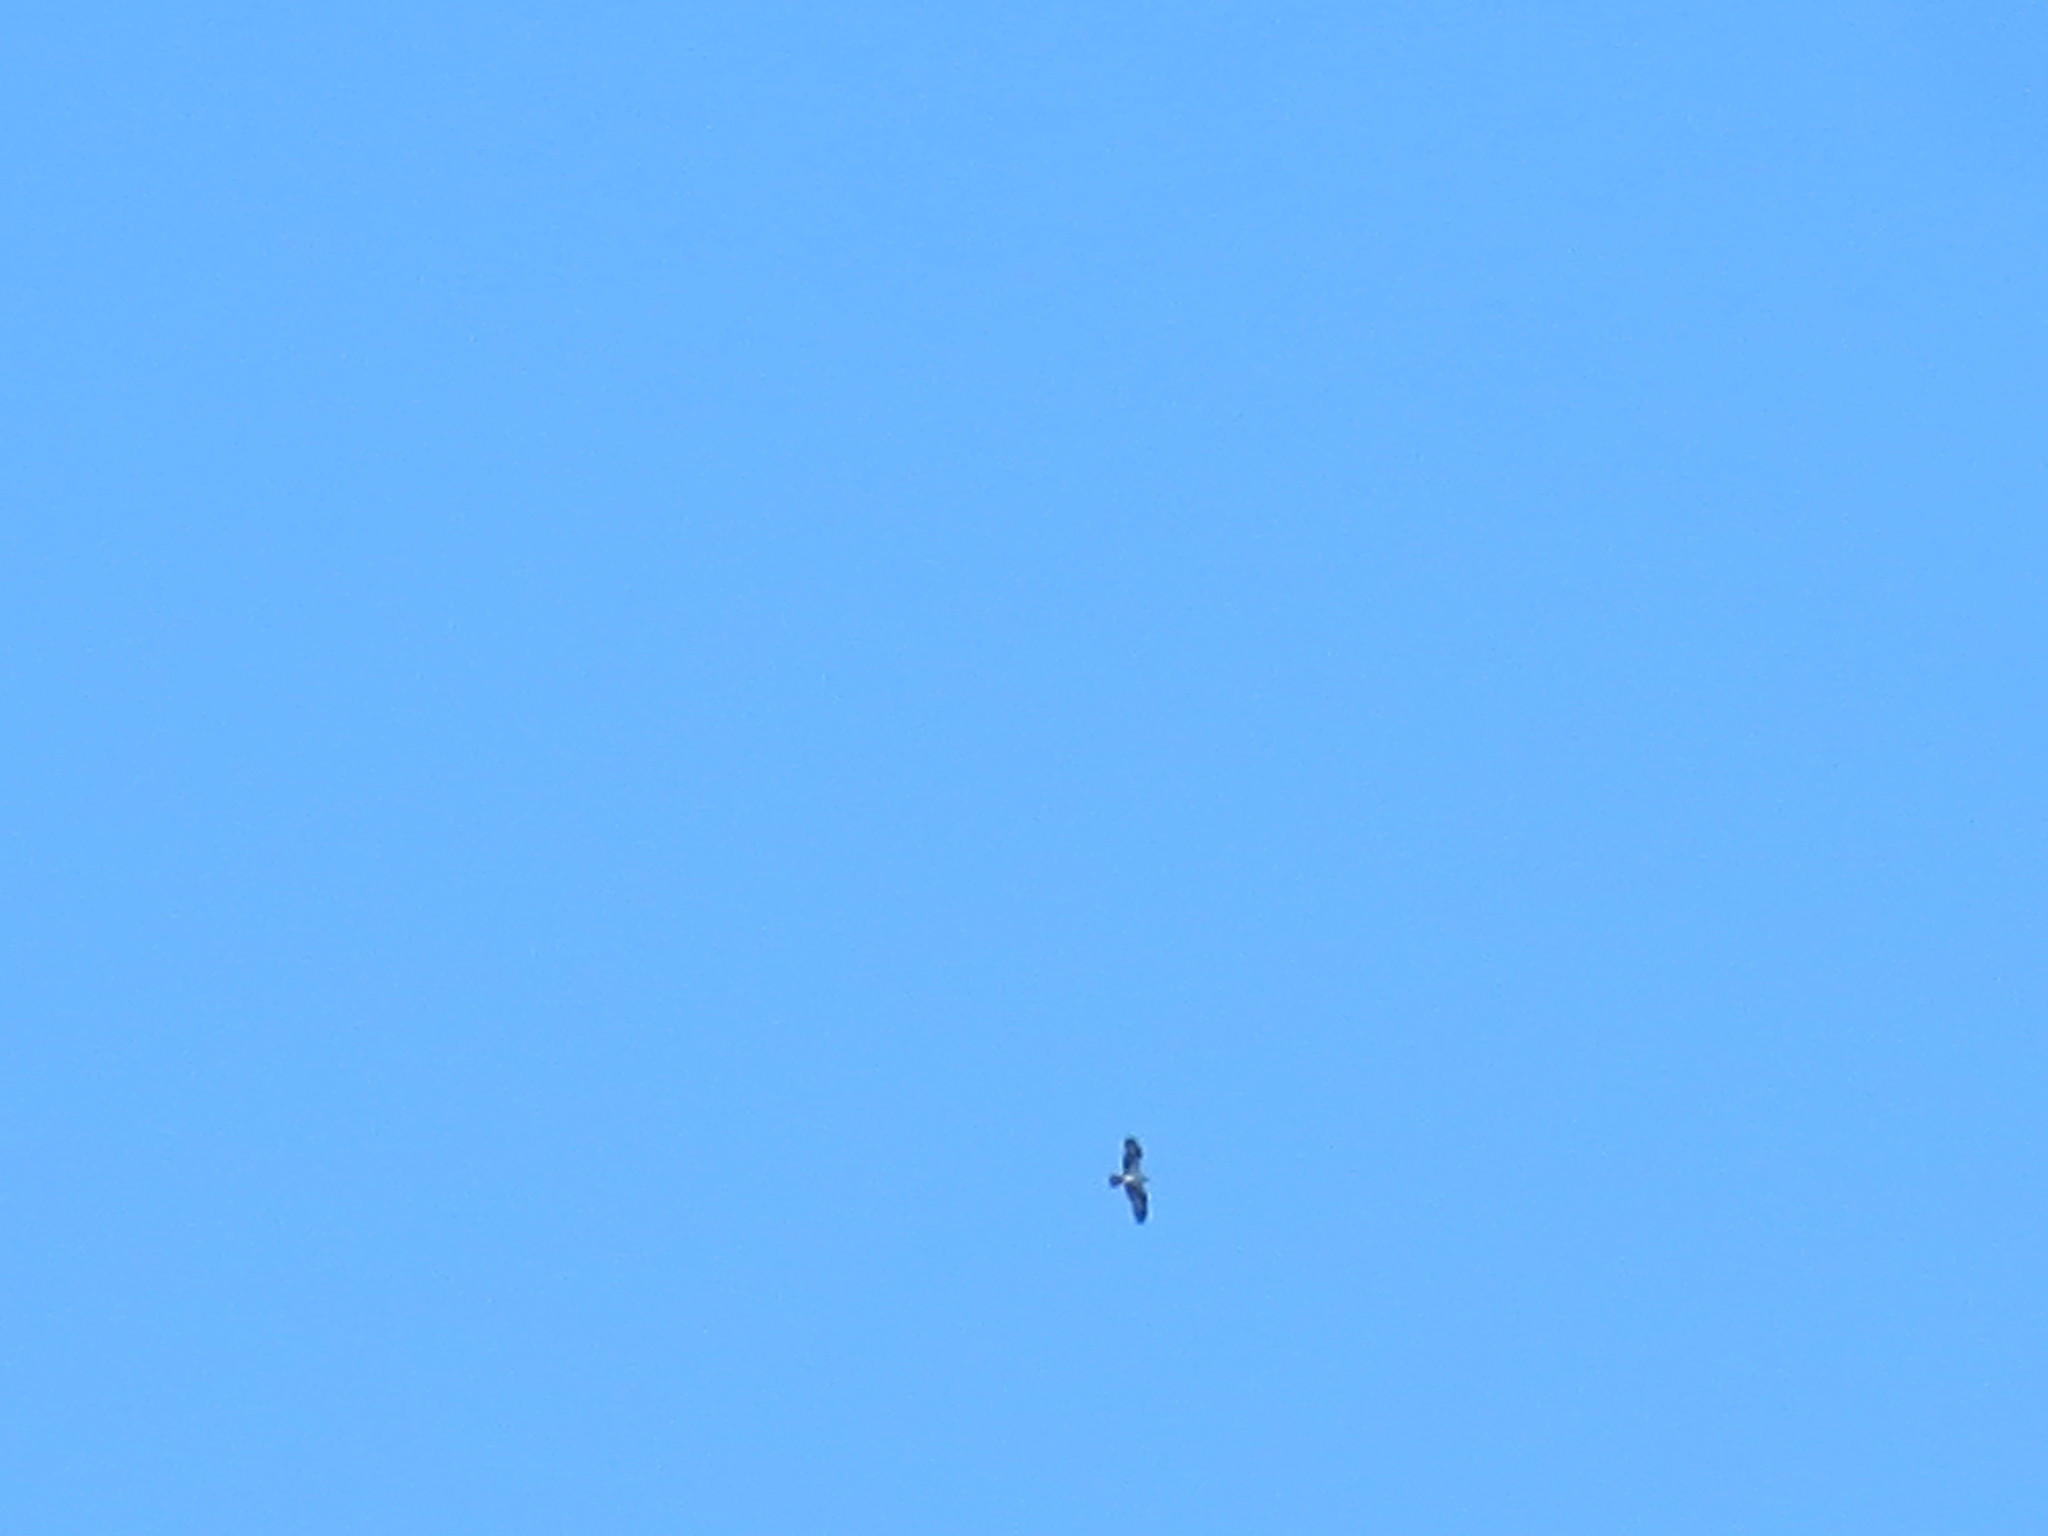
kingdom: Animalia
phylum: Chordata
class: Aves
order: Accipitriformes
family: Pandionidae
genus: Pandion
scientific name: Pandion haliaetus
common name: Osprey
